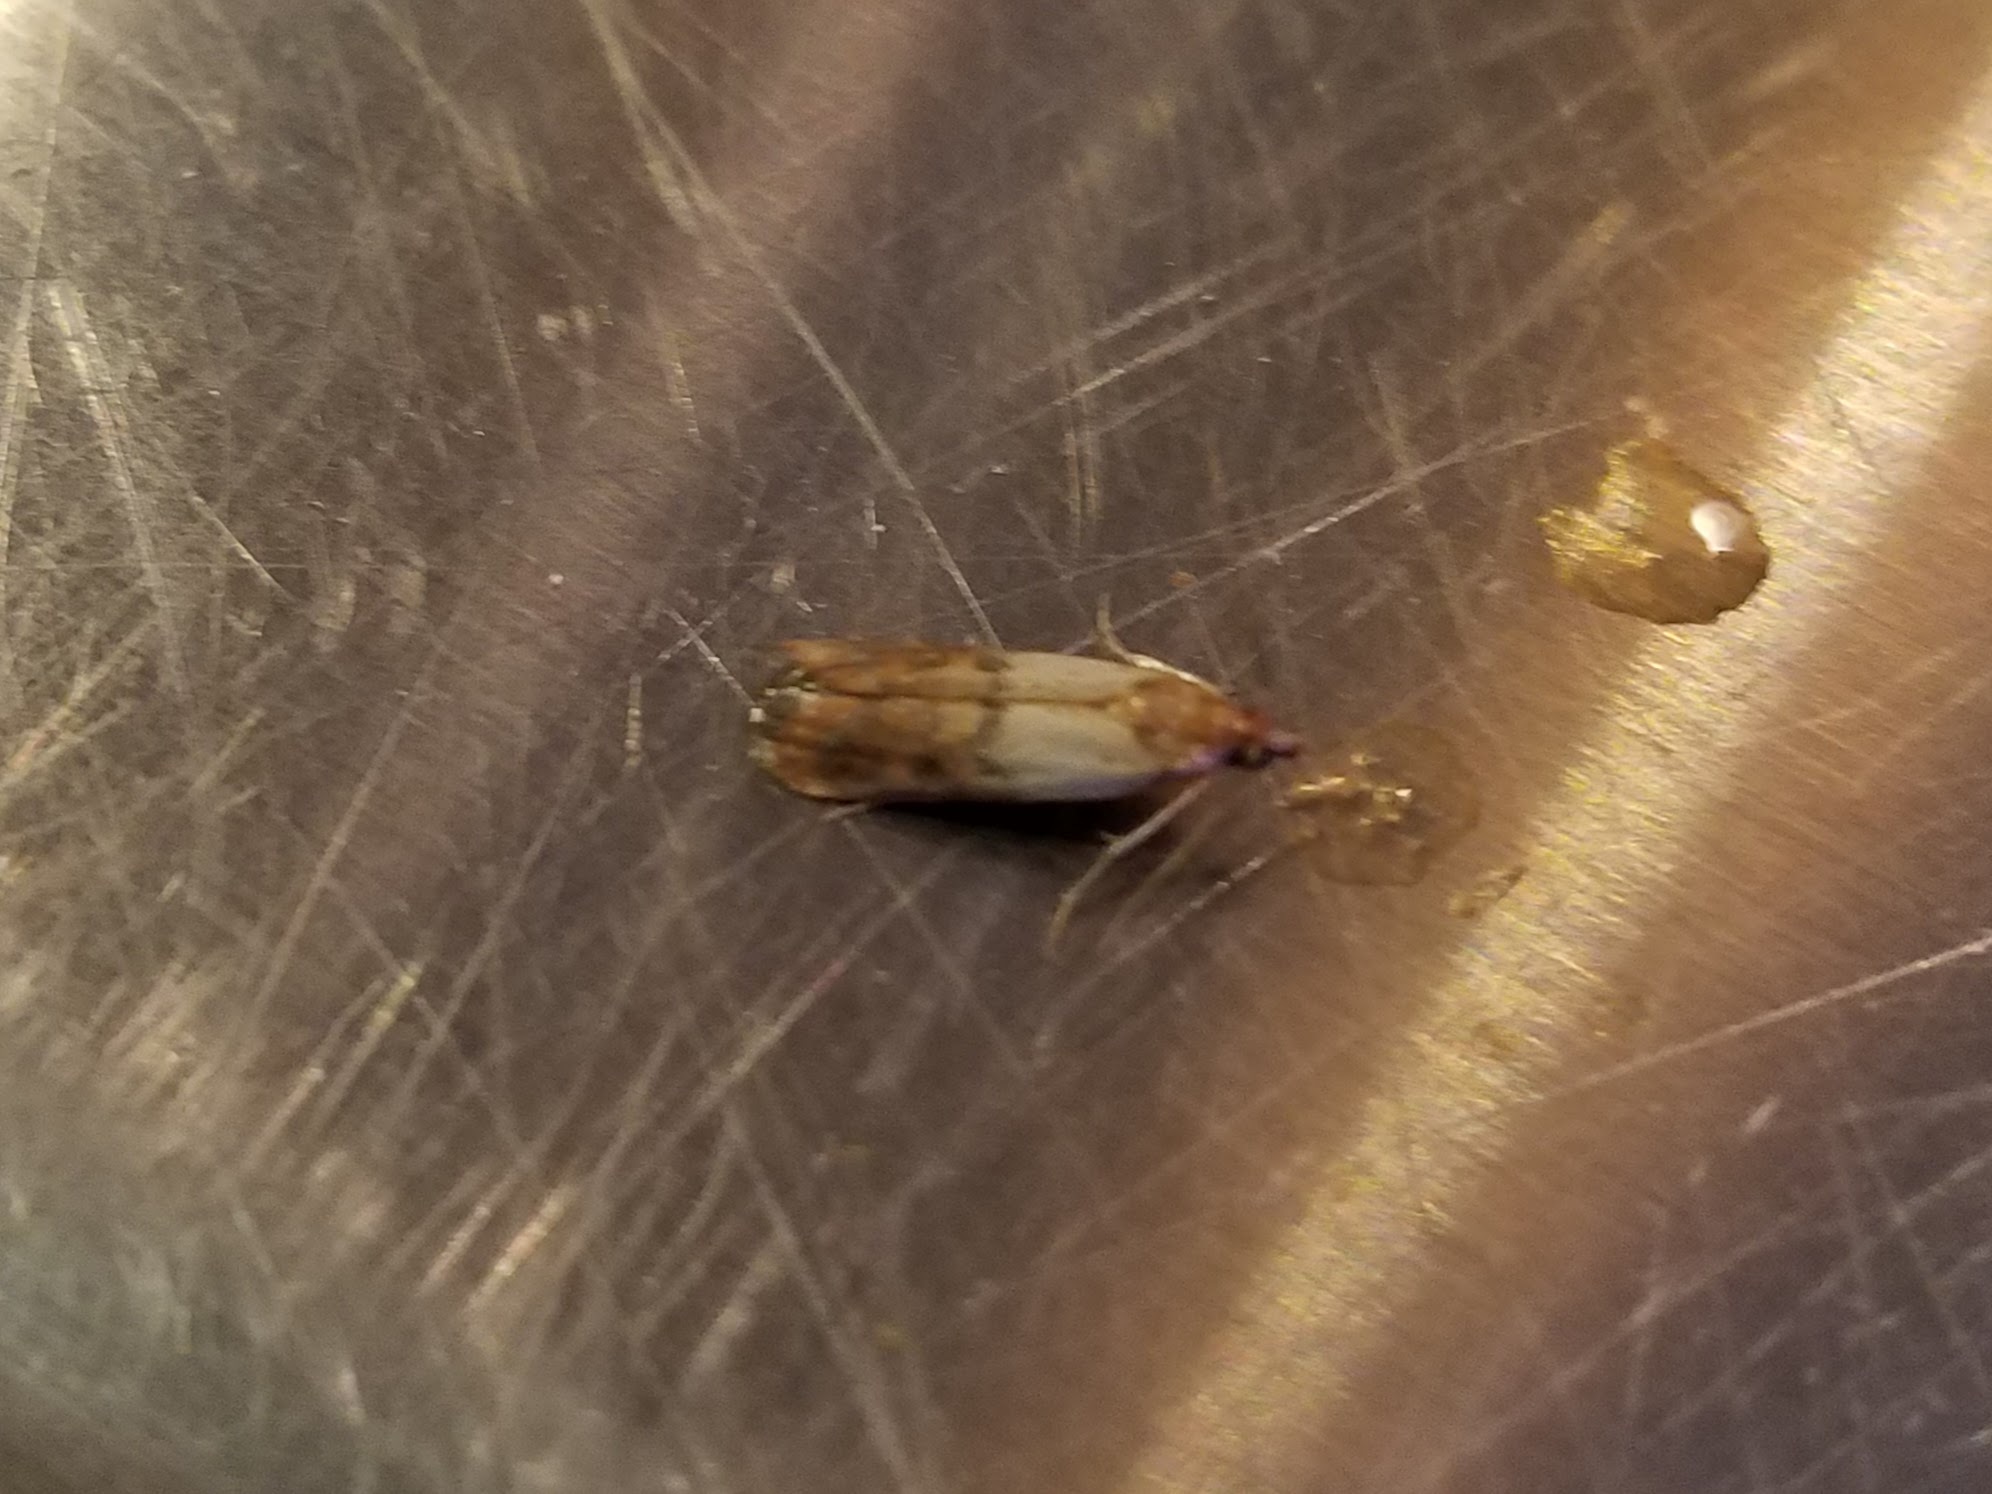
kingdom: Animalia
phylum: Arthropoda
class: Insecta
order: Lepidoptera
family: Pyralidae
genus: Plodia
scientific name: Plodia interpunctella
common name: Indian meal moth
